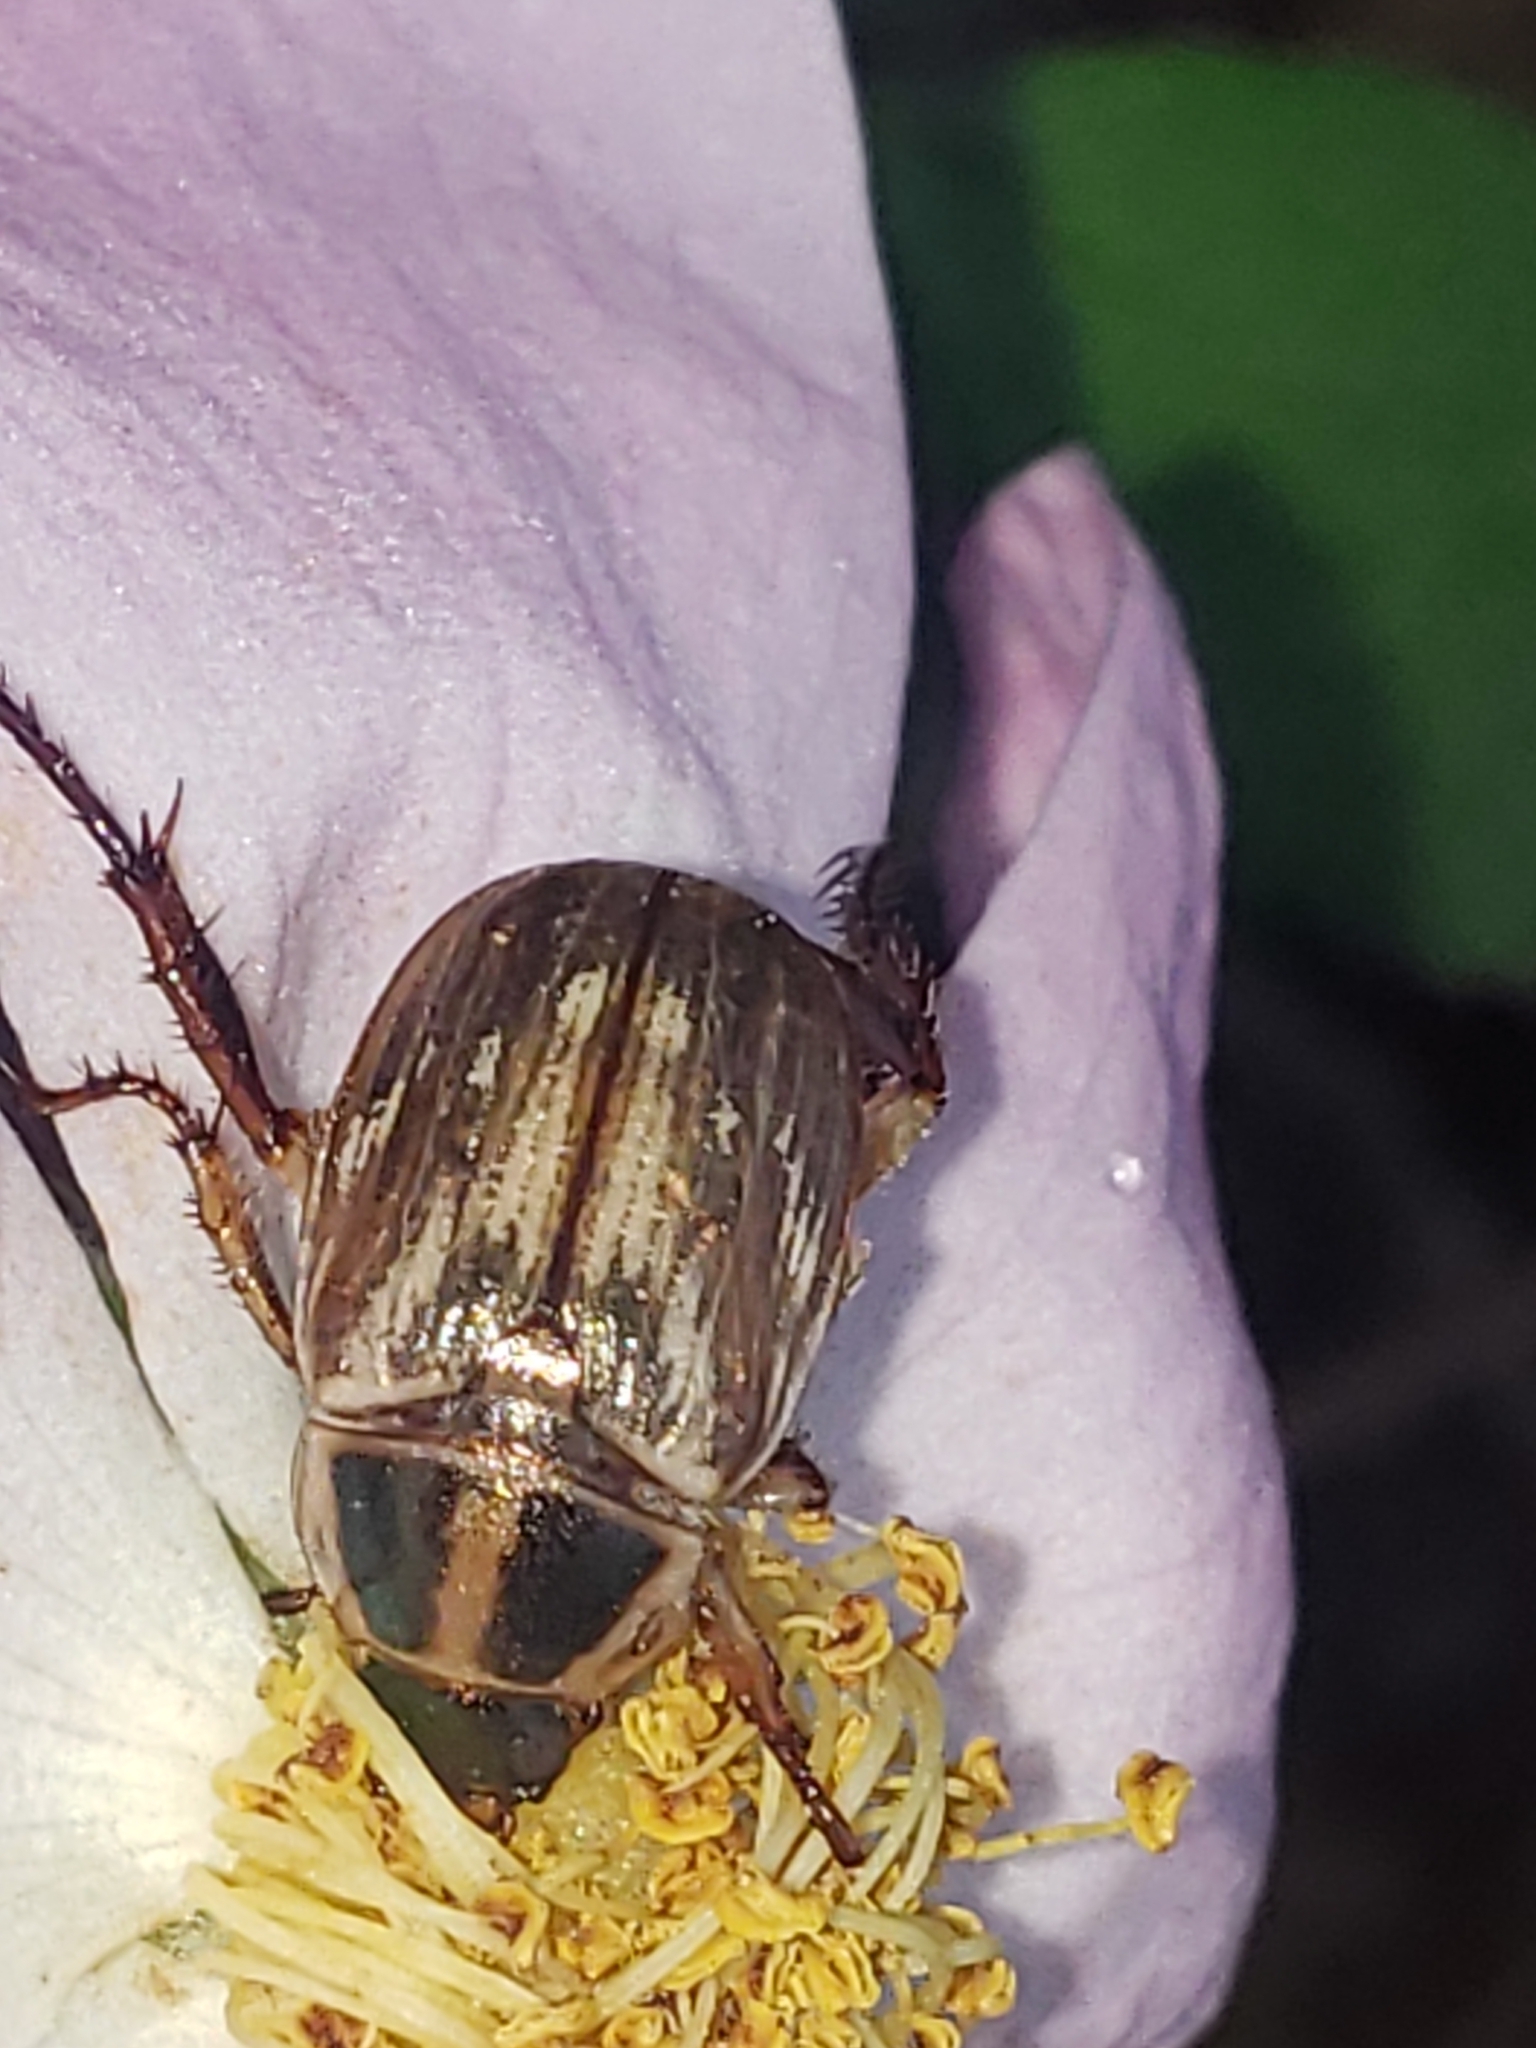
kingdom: Animalia
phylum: Arthropoda
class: Insecta
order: Coleoptera
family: Scarabaeidae
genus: Exomala
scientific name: Exomala orientalis
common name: Oriental beetle
